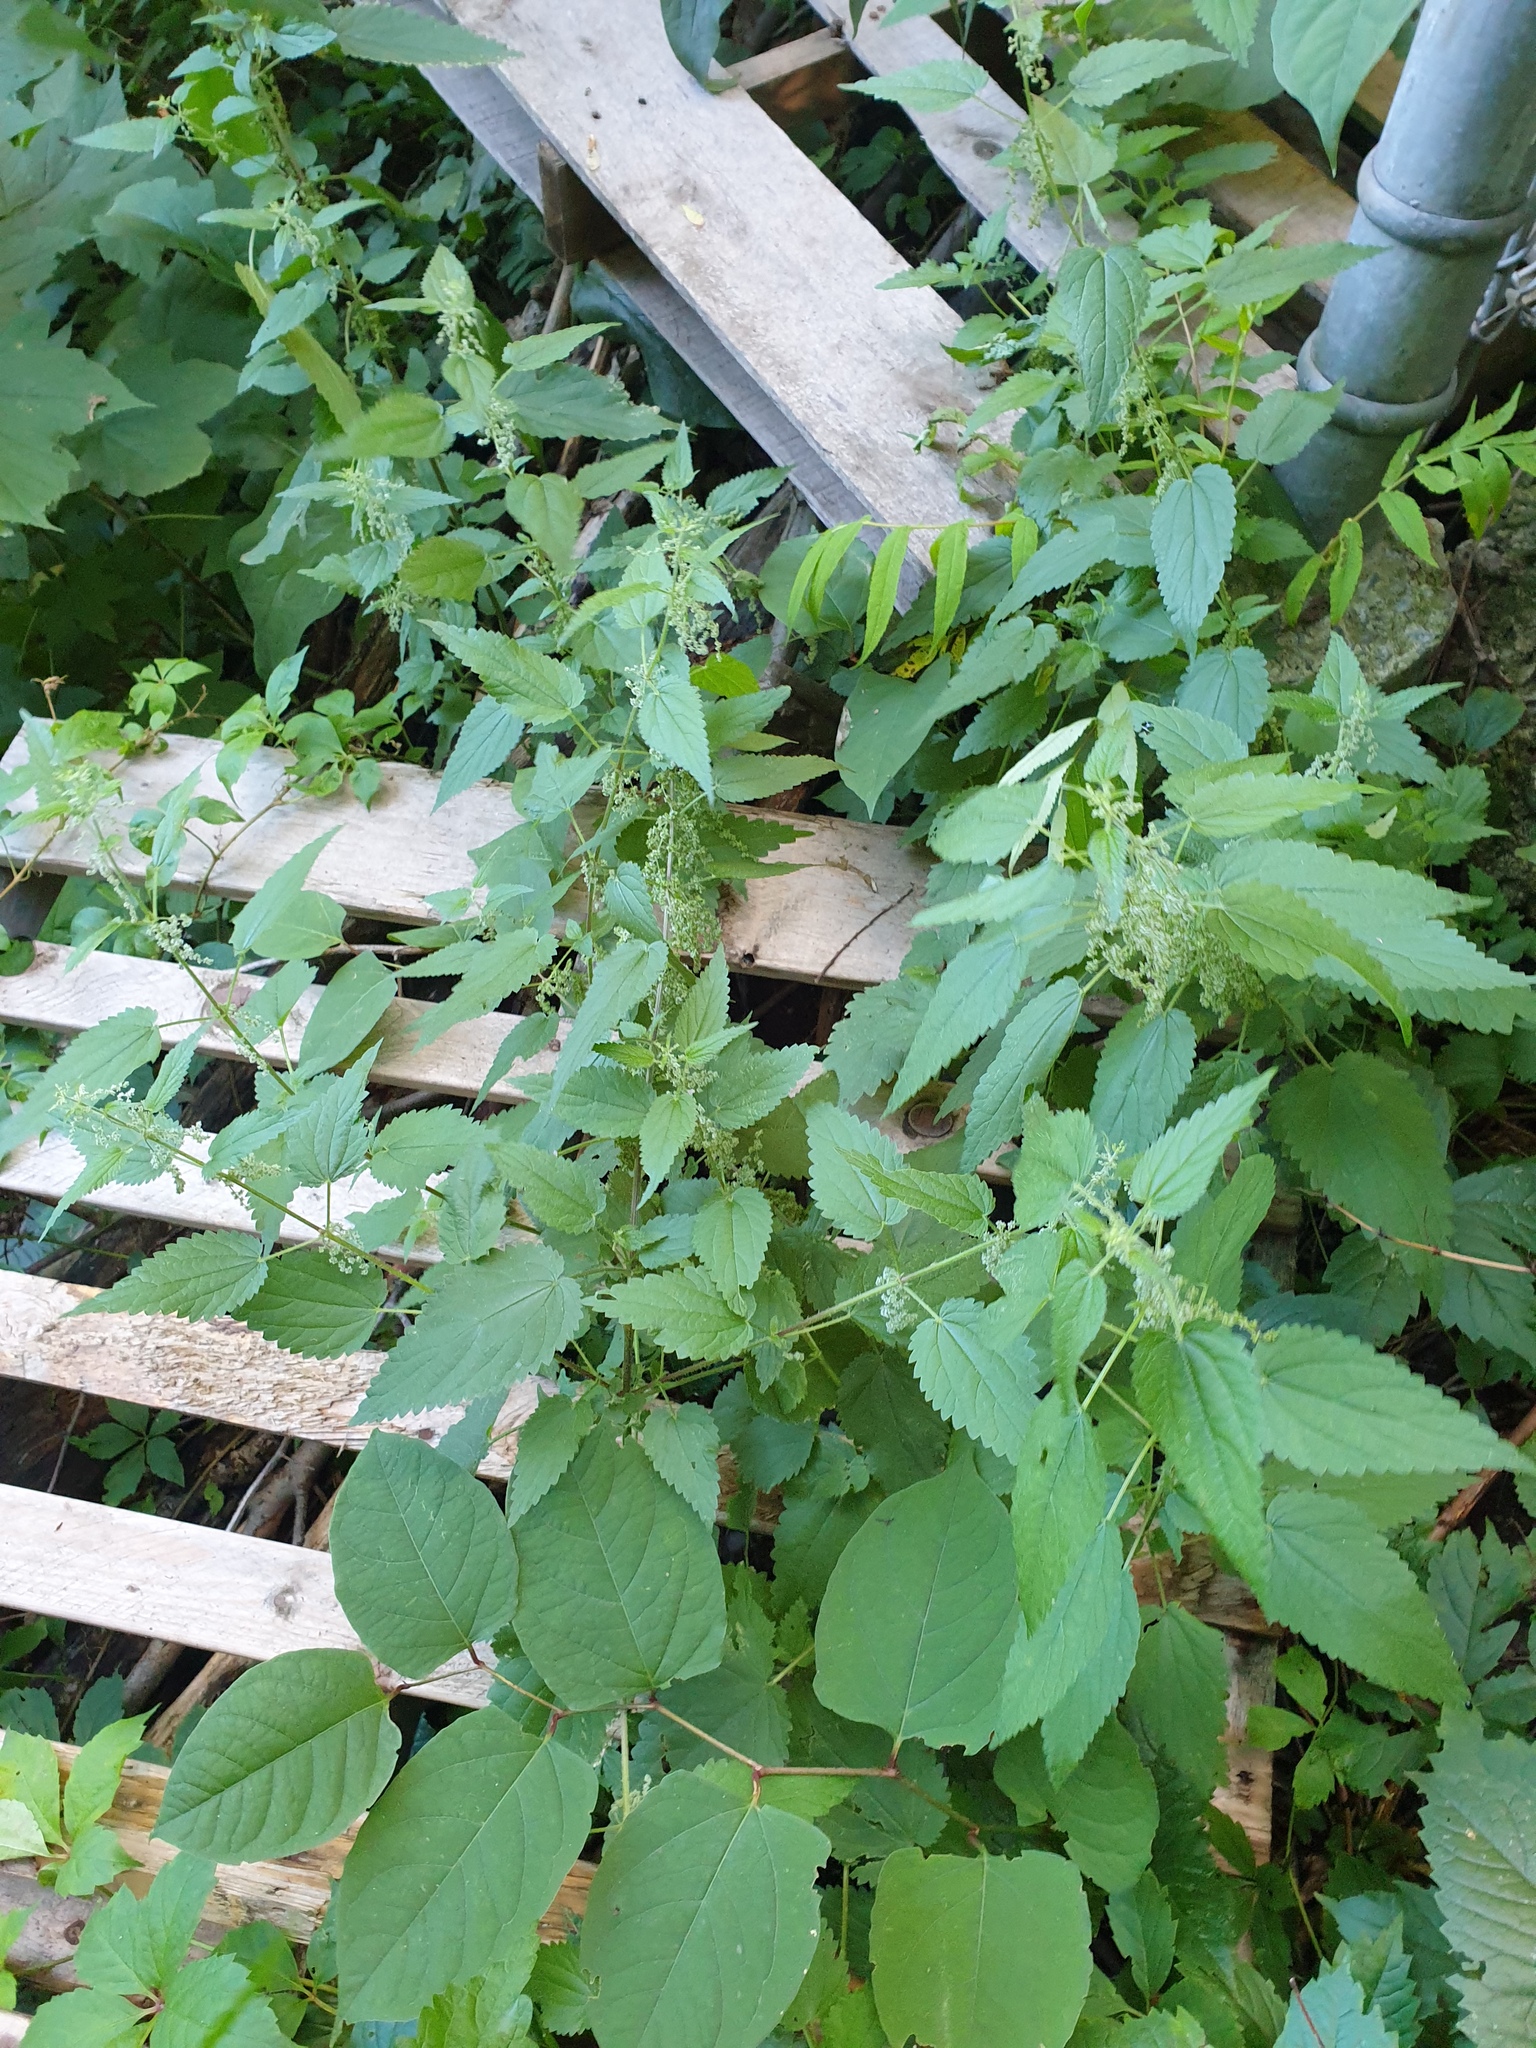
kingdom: Plantae
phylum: Tracheophyta
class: Magnoliopsida
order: Rosales
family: Urticaceae
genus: Urtica
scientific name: Urtica gracilis
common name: Slender stinging nettle
